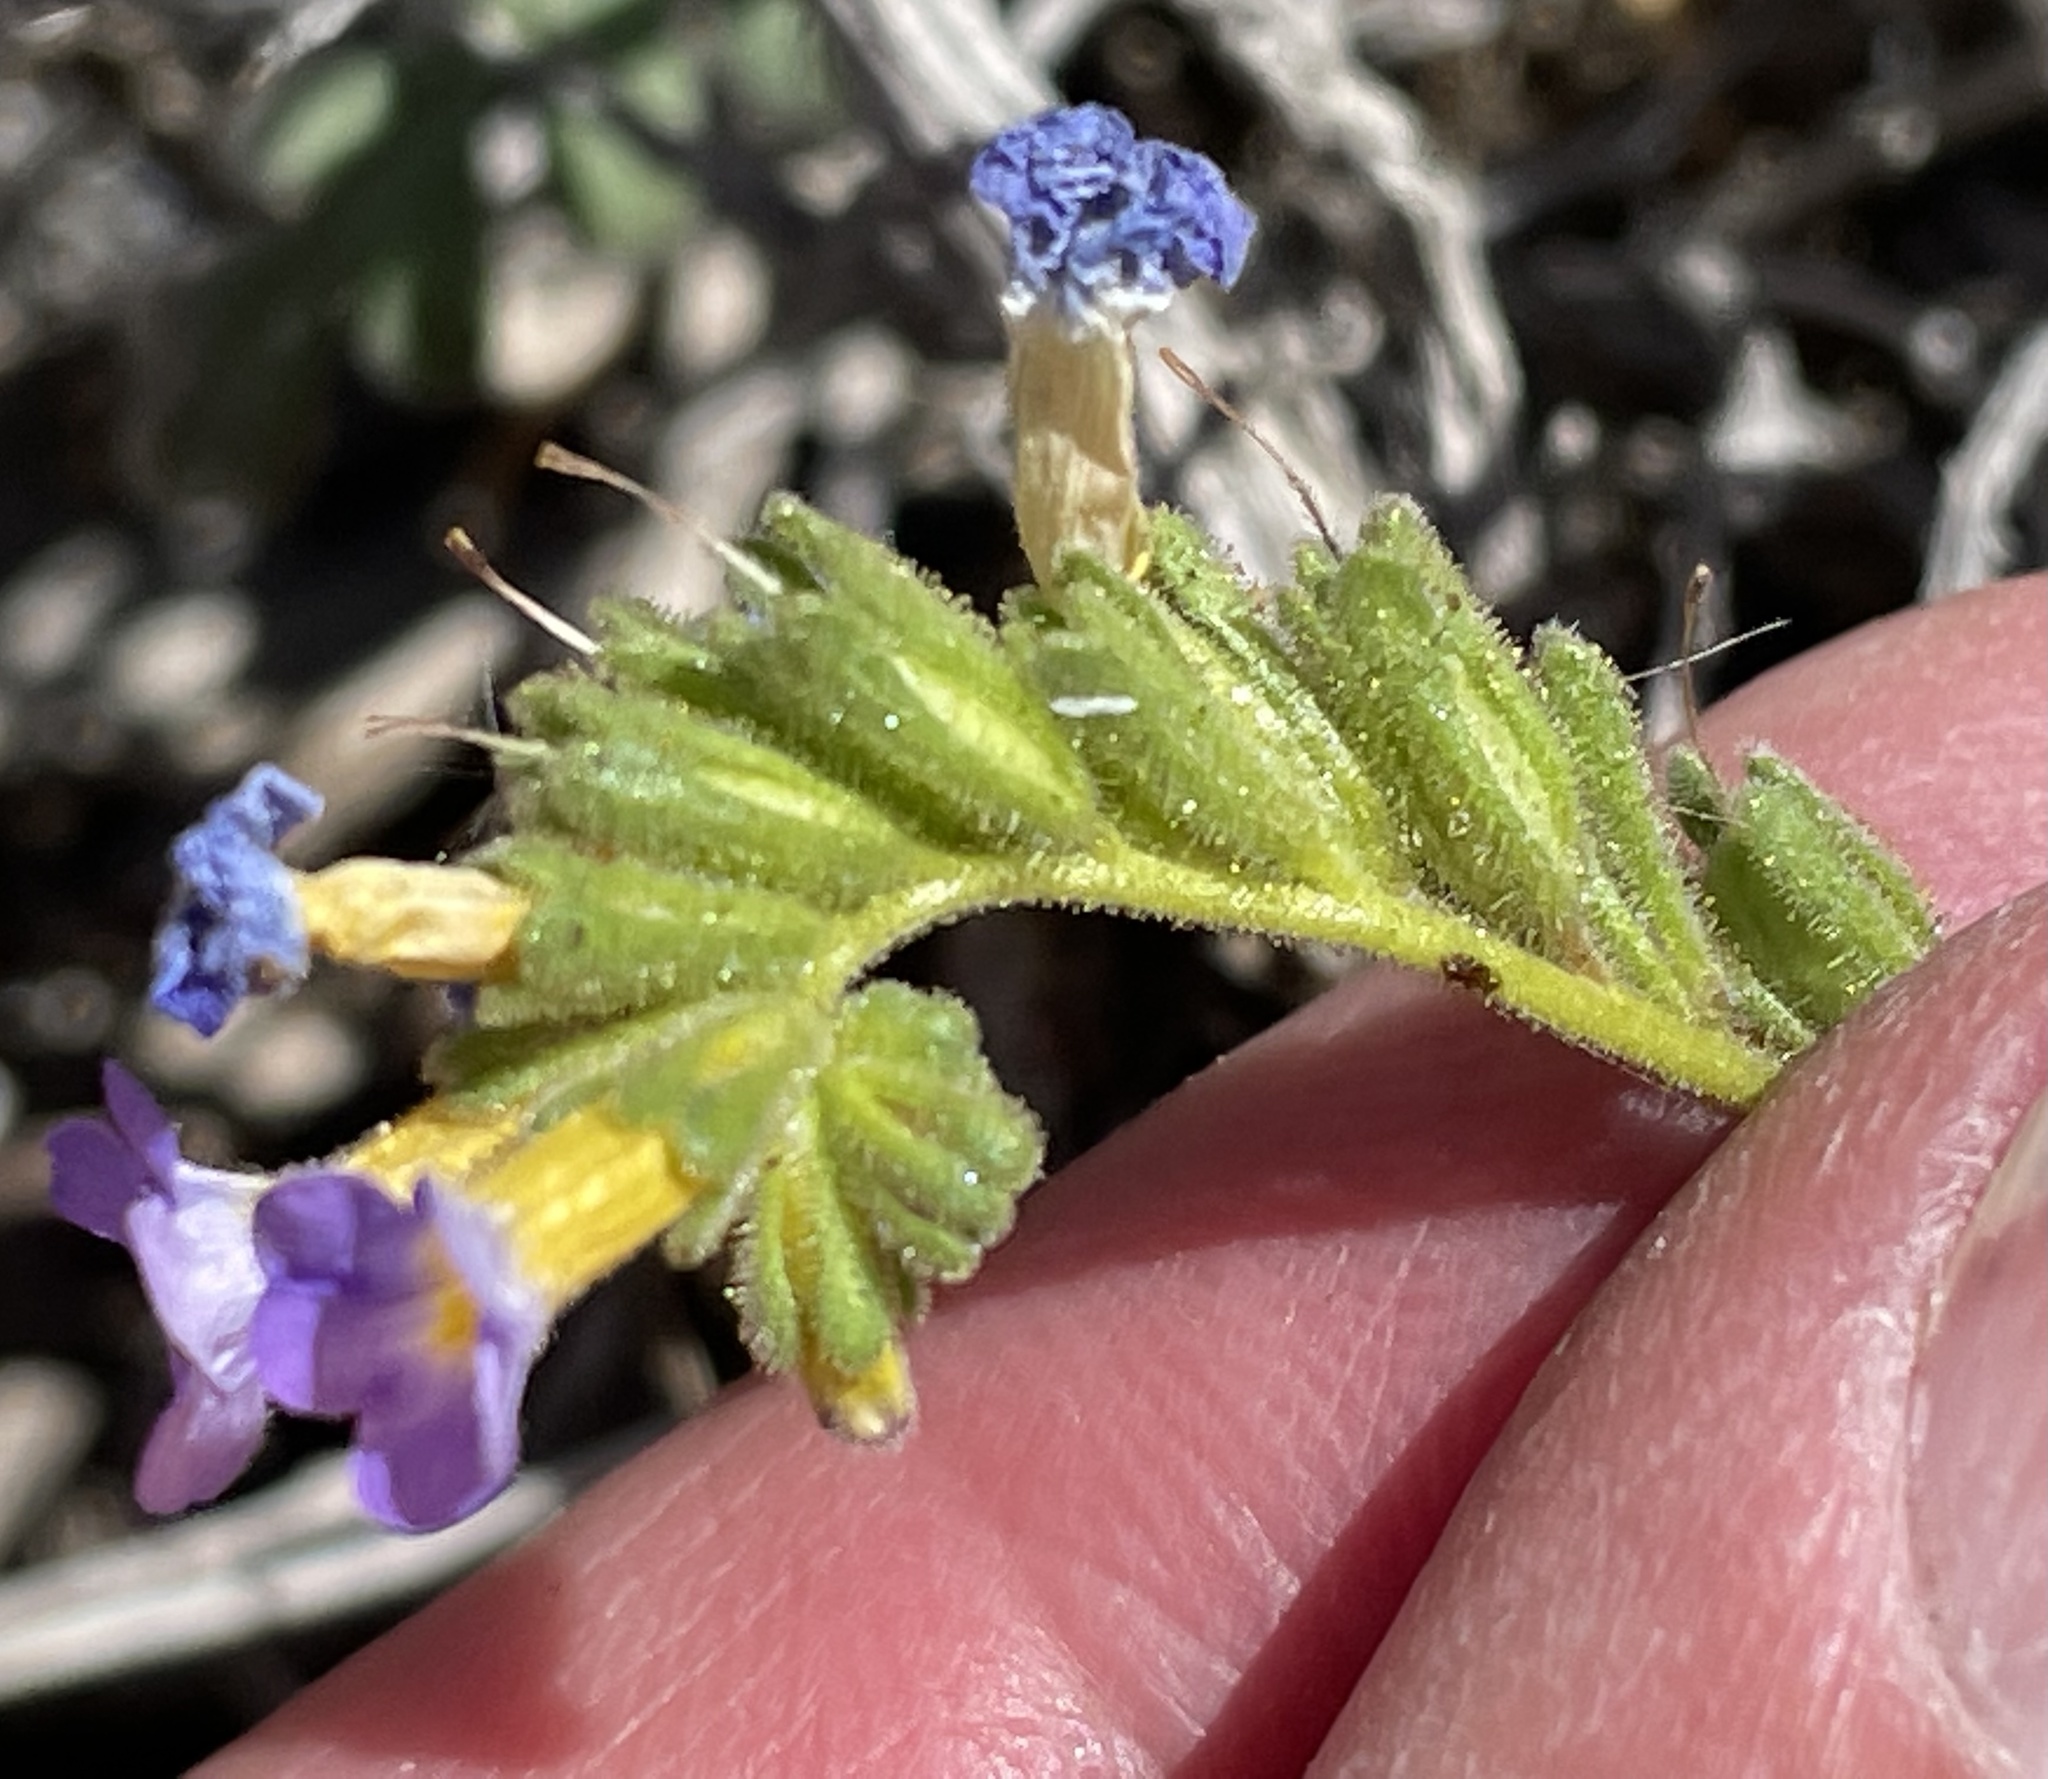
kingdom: Plantae
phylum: Tracheophyta
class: Magnoliopsida
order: Boraginales
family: Hydrophyllaceae
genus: Phacelia
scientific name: Phacelia fremontii
